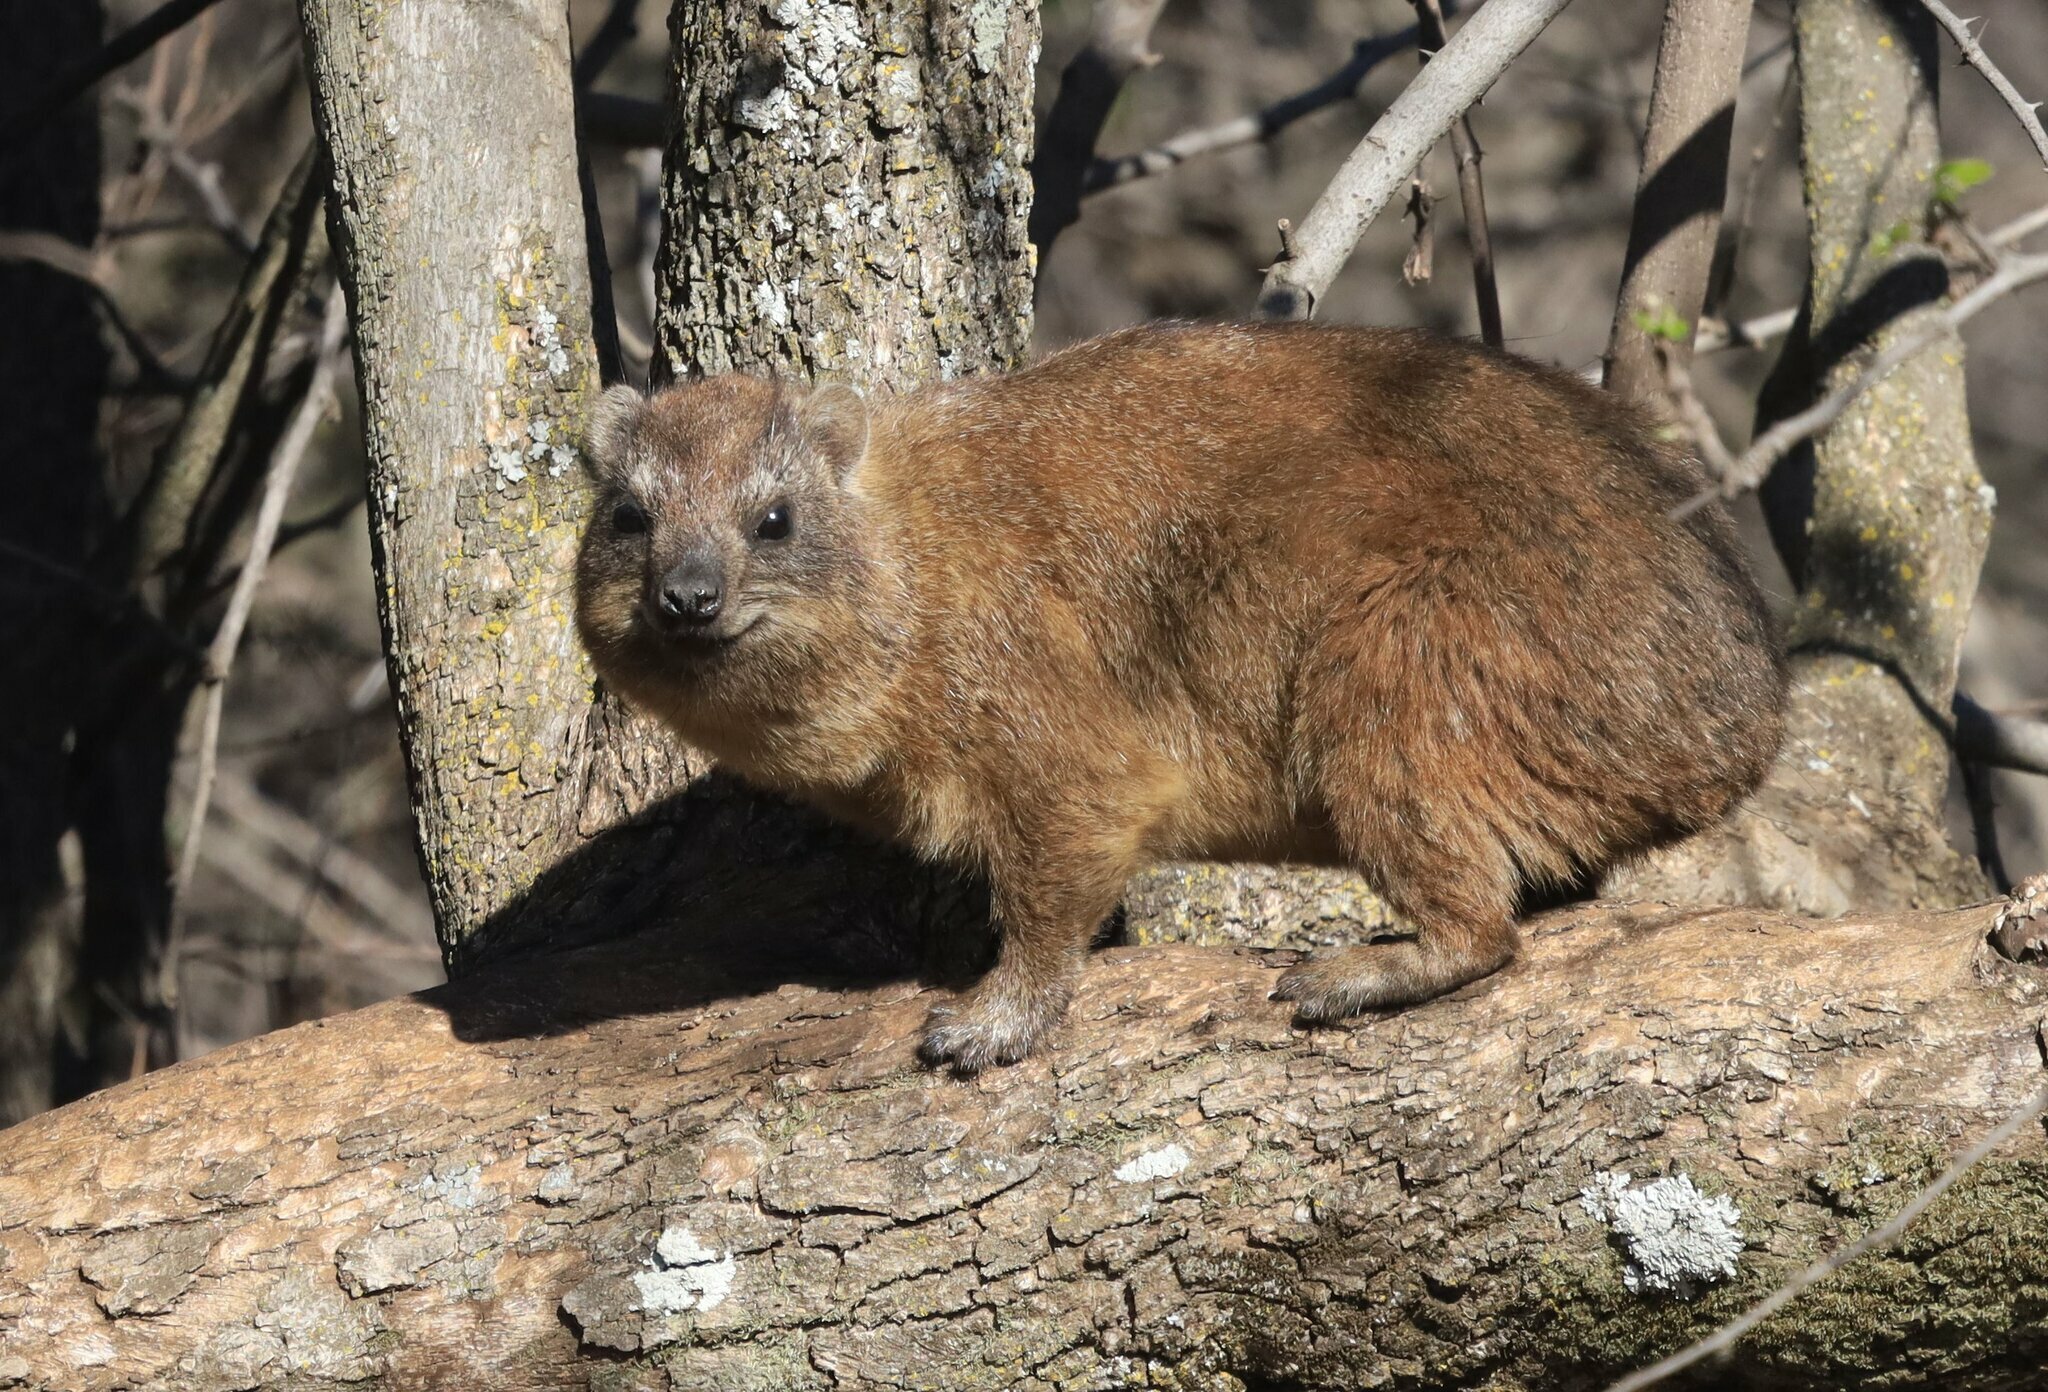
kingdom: Animalia
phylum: Chordata
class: Mammalia
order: Hyracoidea
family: Procaviidae
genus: Procavia
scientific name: Procavia capensis
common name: Rock hyrax
